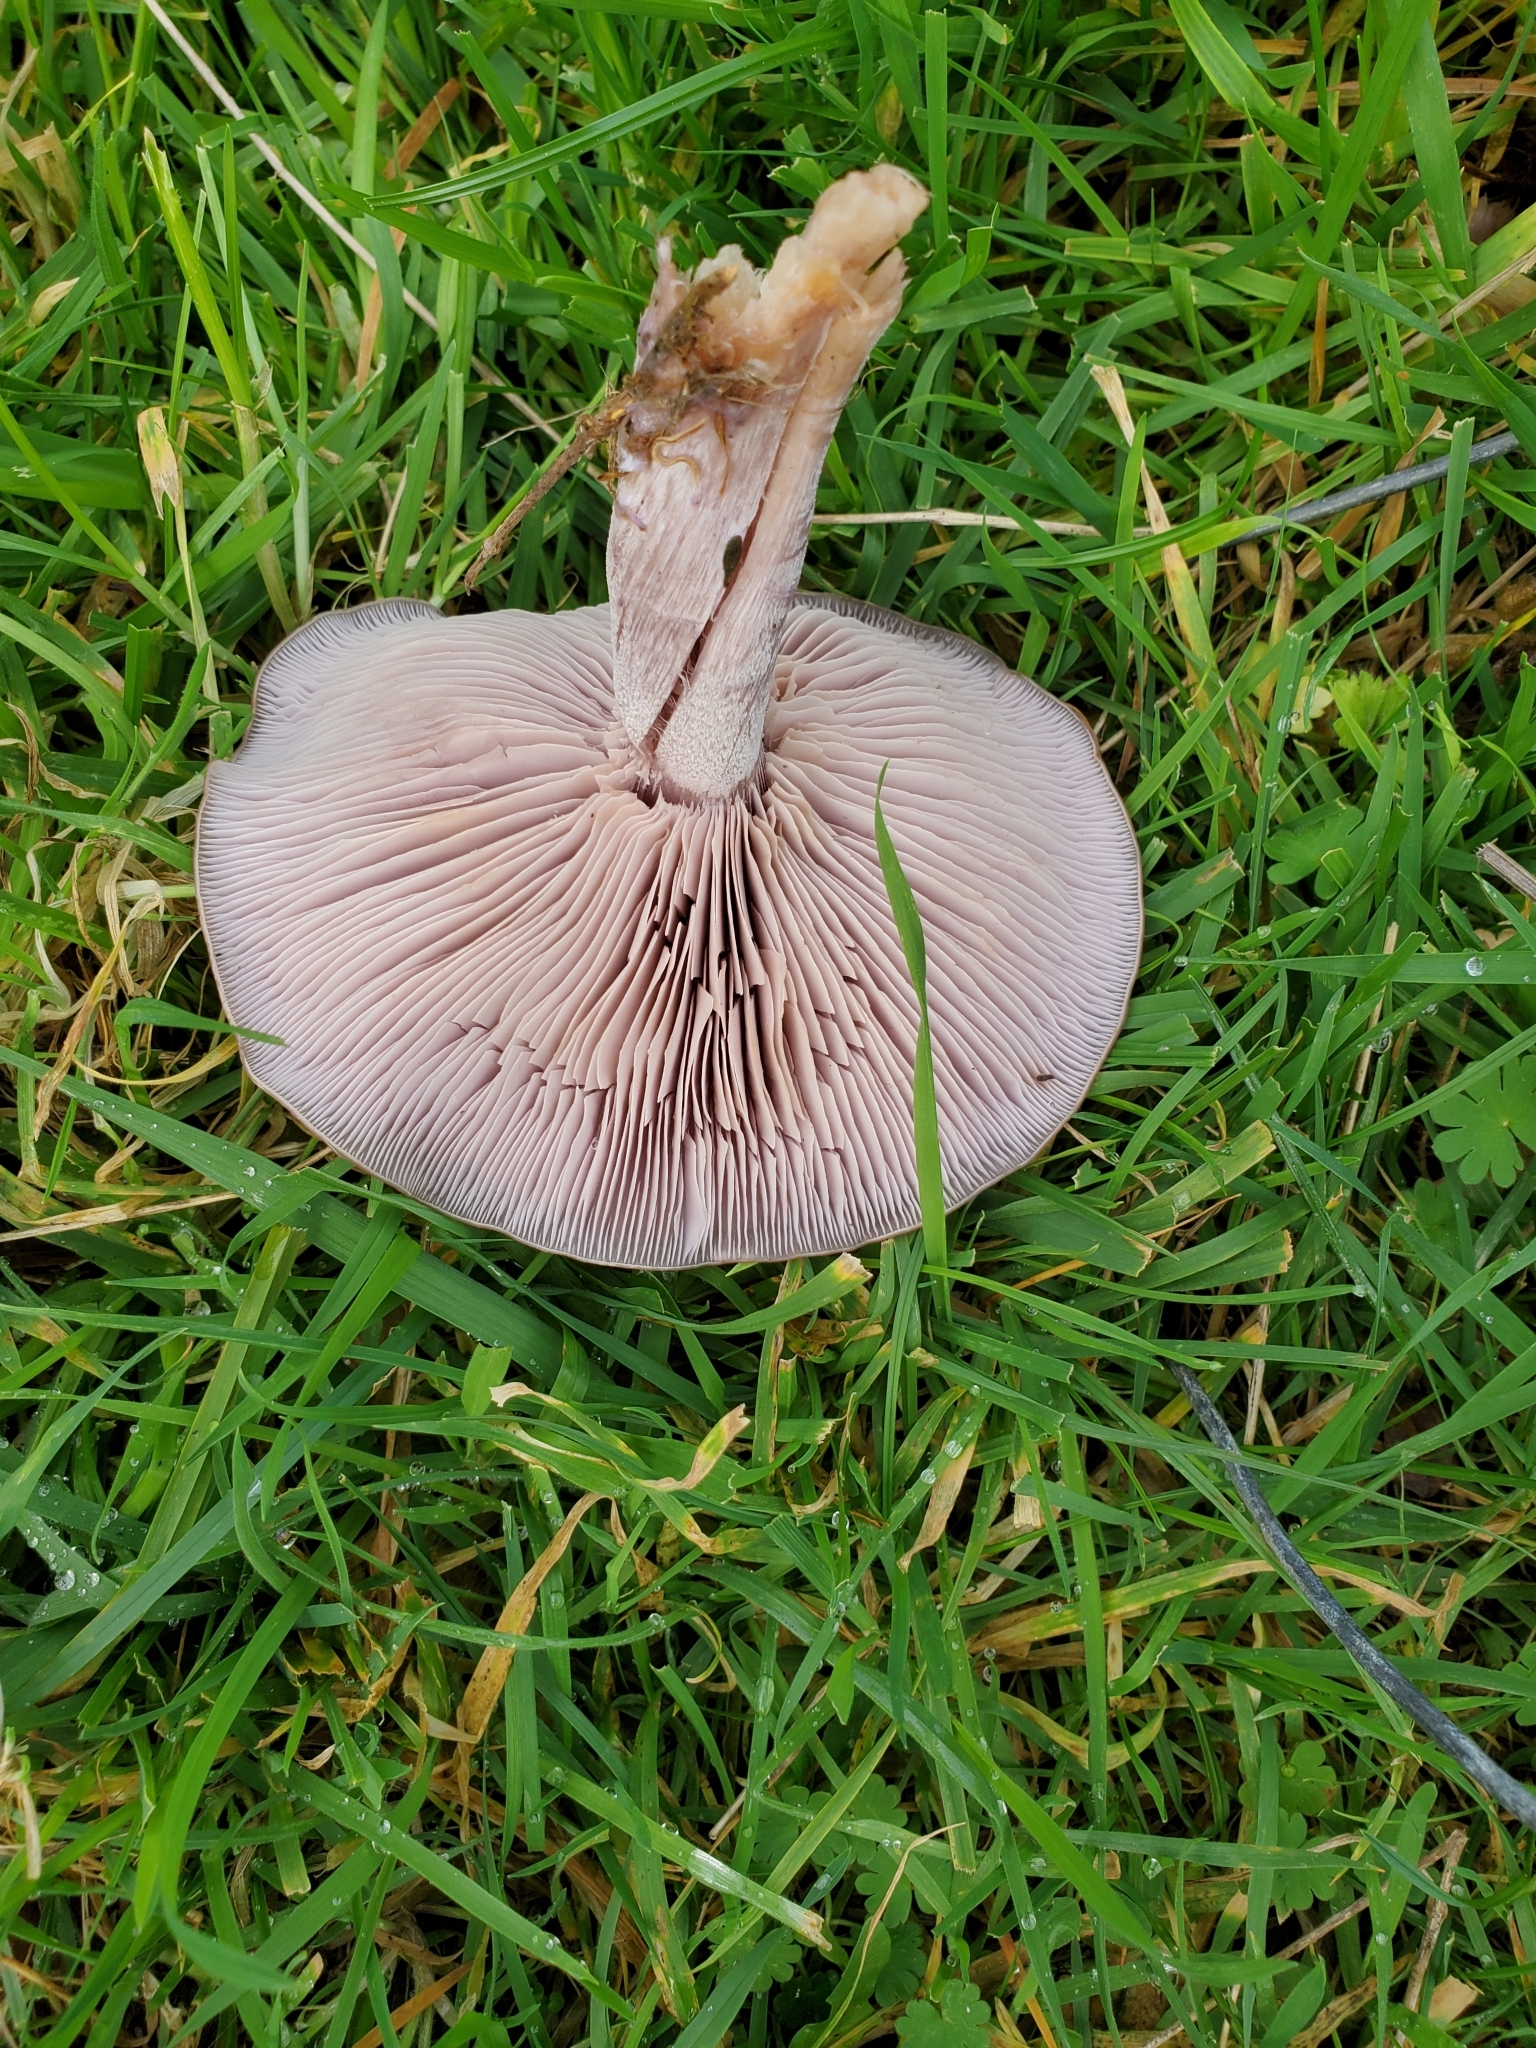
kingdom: Fungi
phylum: Basidiomycota
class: Agaricomycetes
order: Agaricales
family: Tricholomataceae
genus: Collybia
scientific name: Collybia
